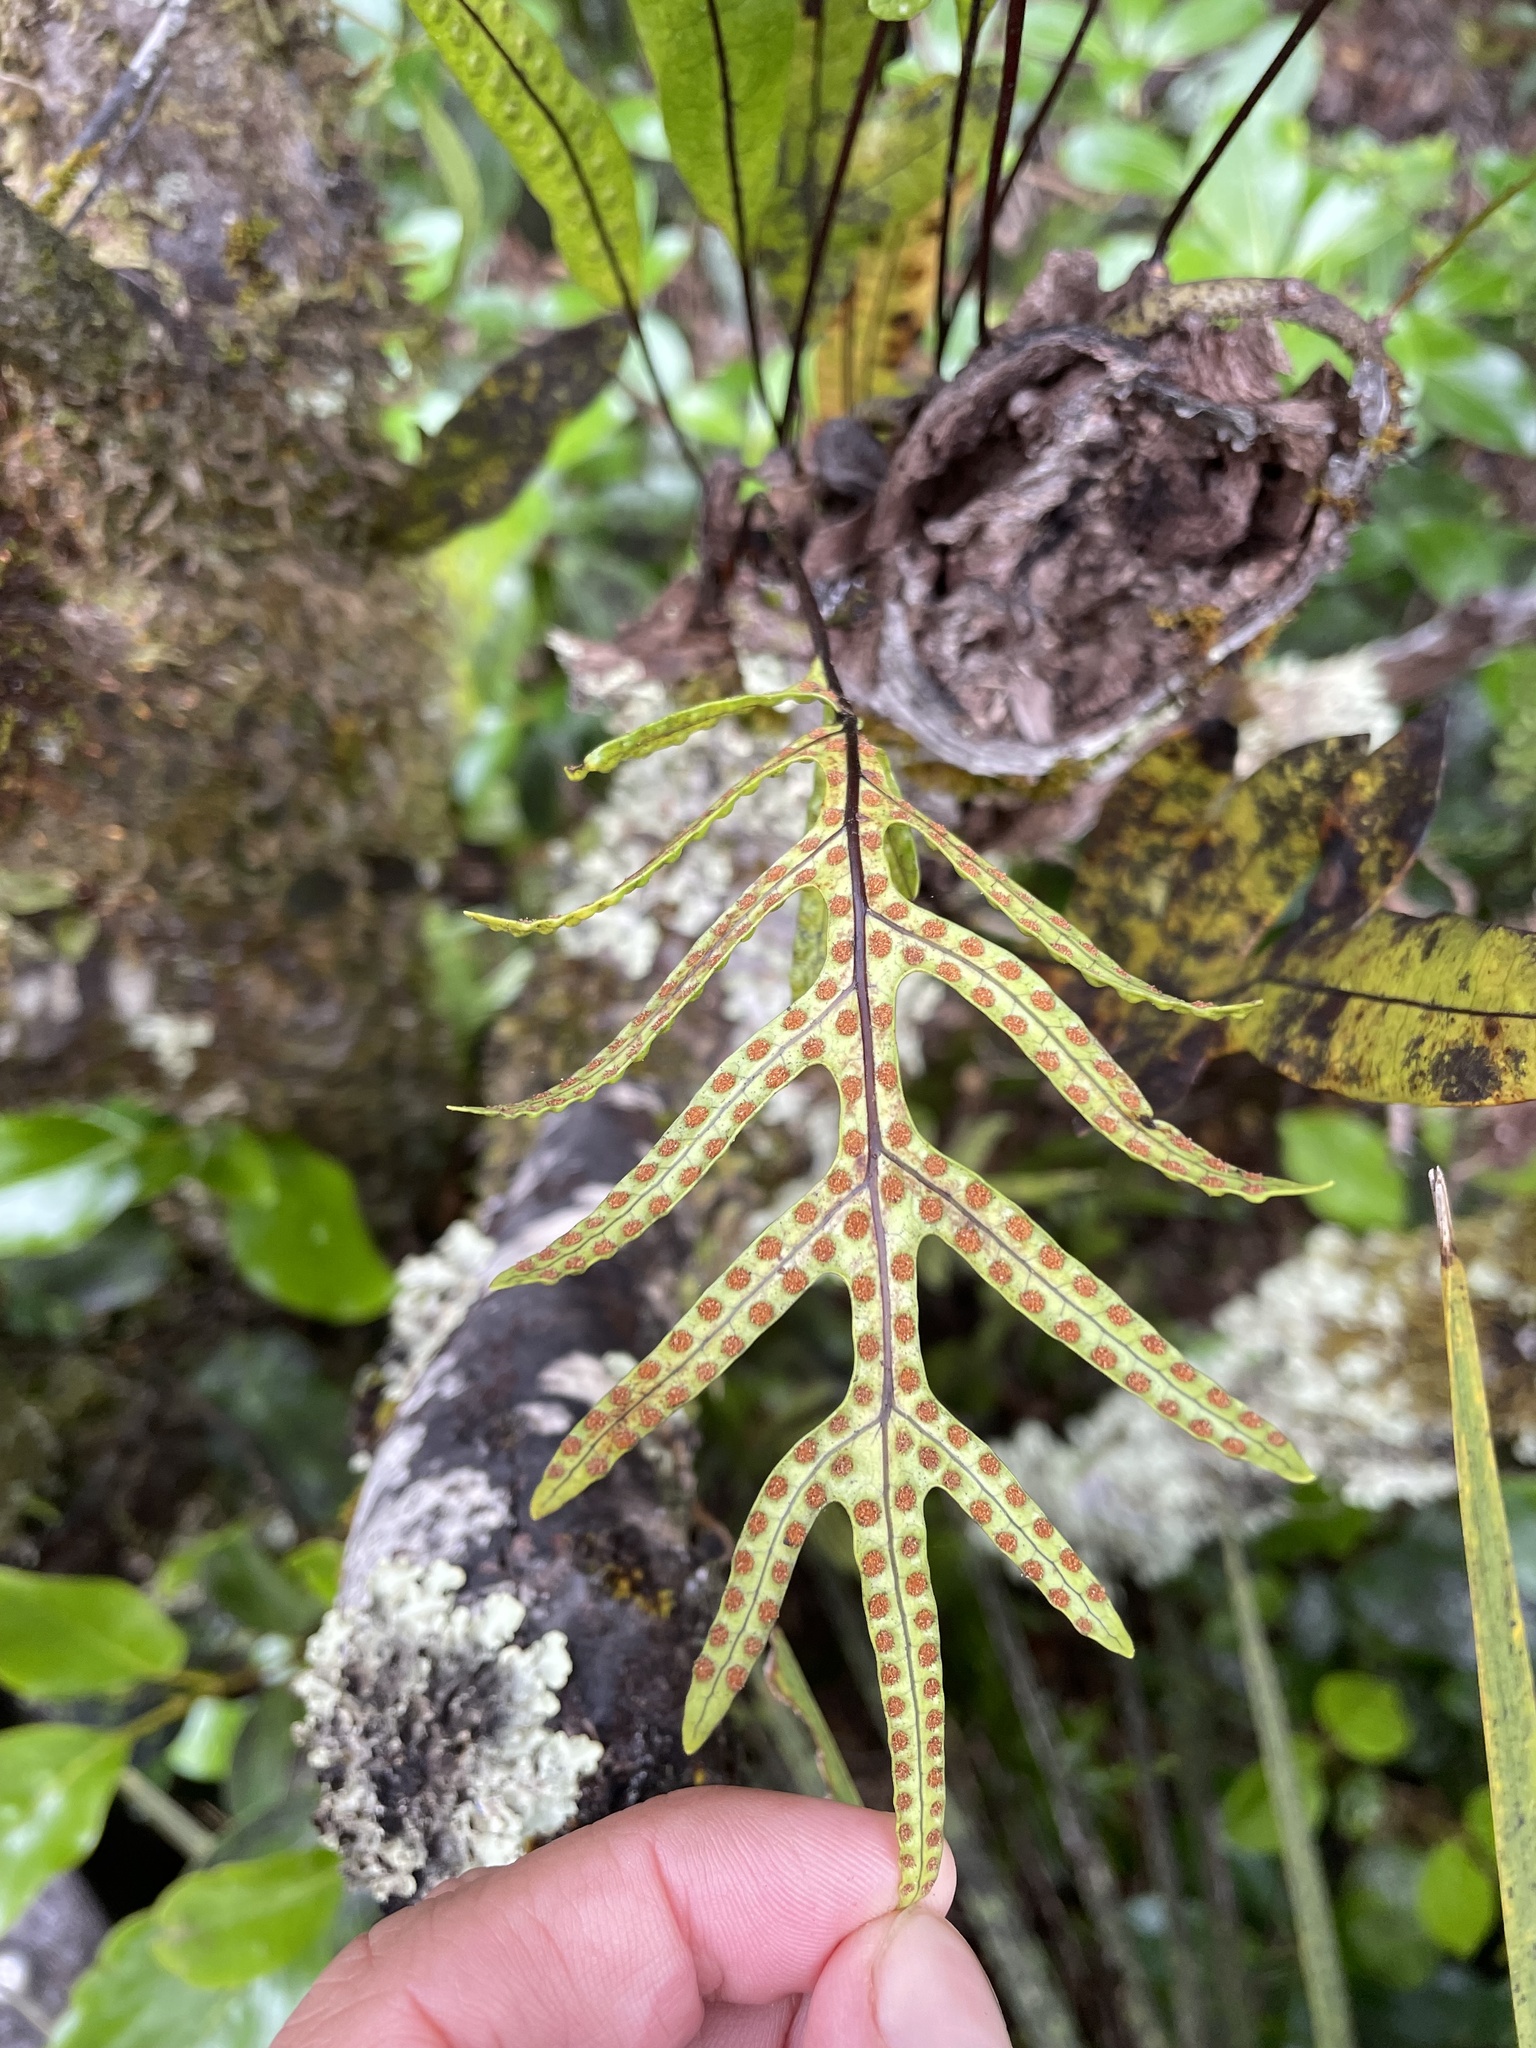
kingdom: Plantae
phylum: Tracheophyta
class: Polypodiopsida
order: Polypodiales
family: Polypodiaceae
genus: Lecanopteris
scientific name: Lecanopteris pustulata
